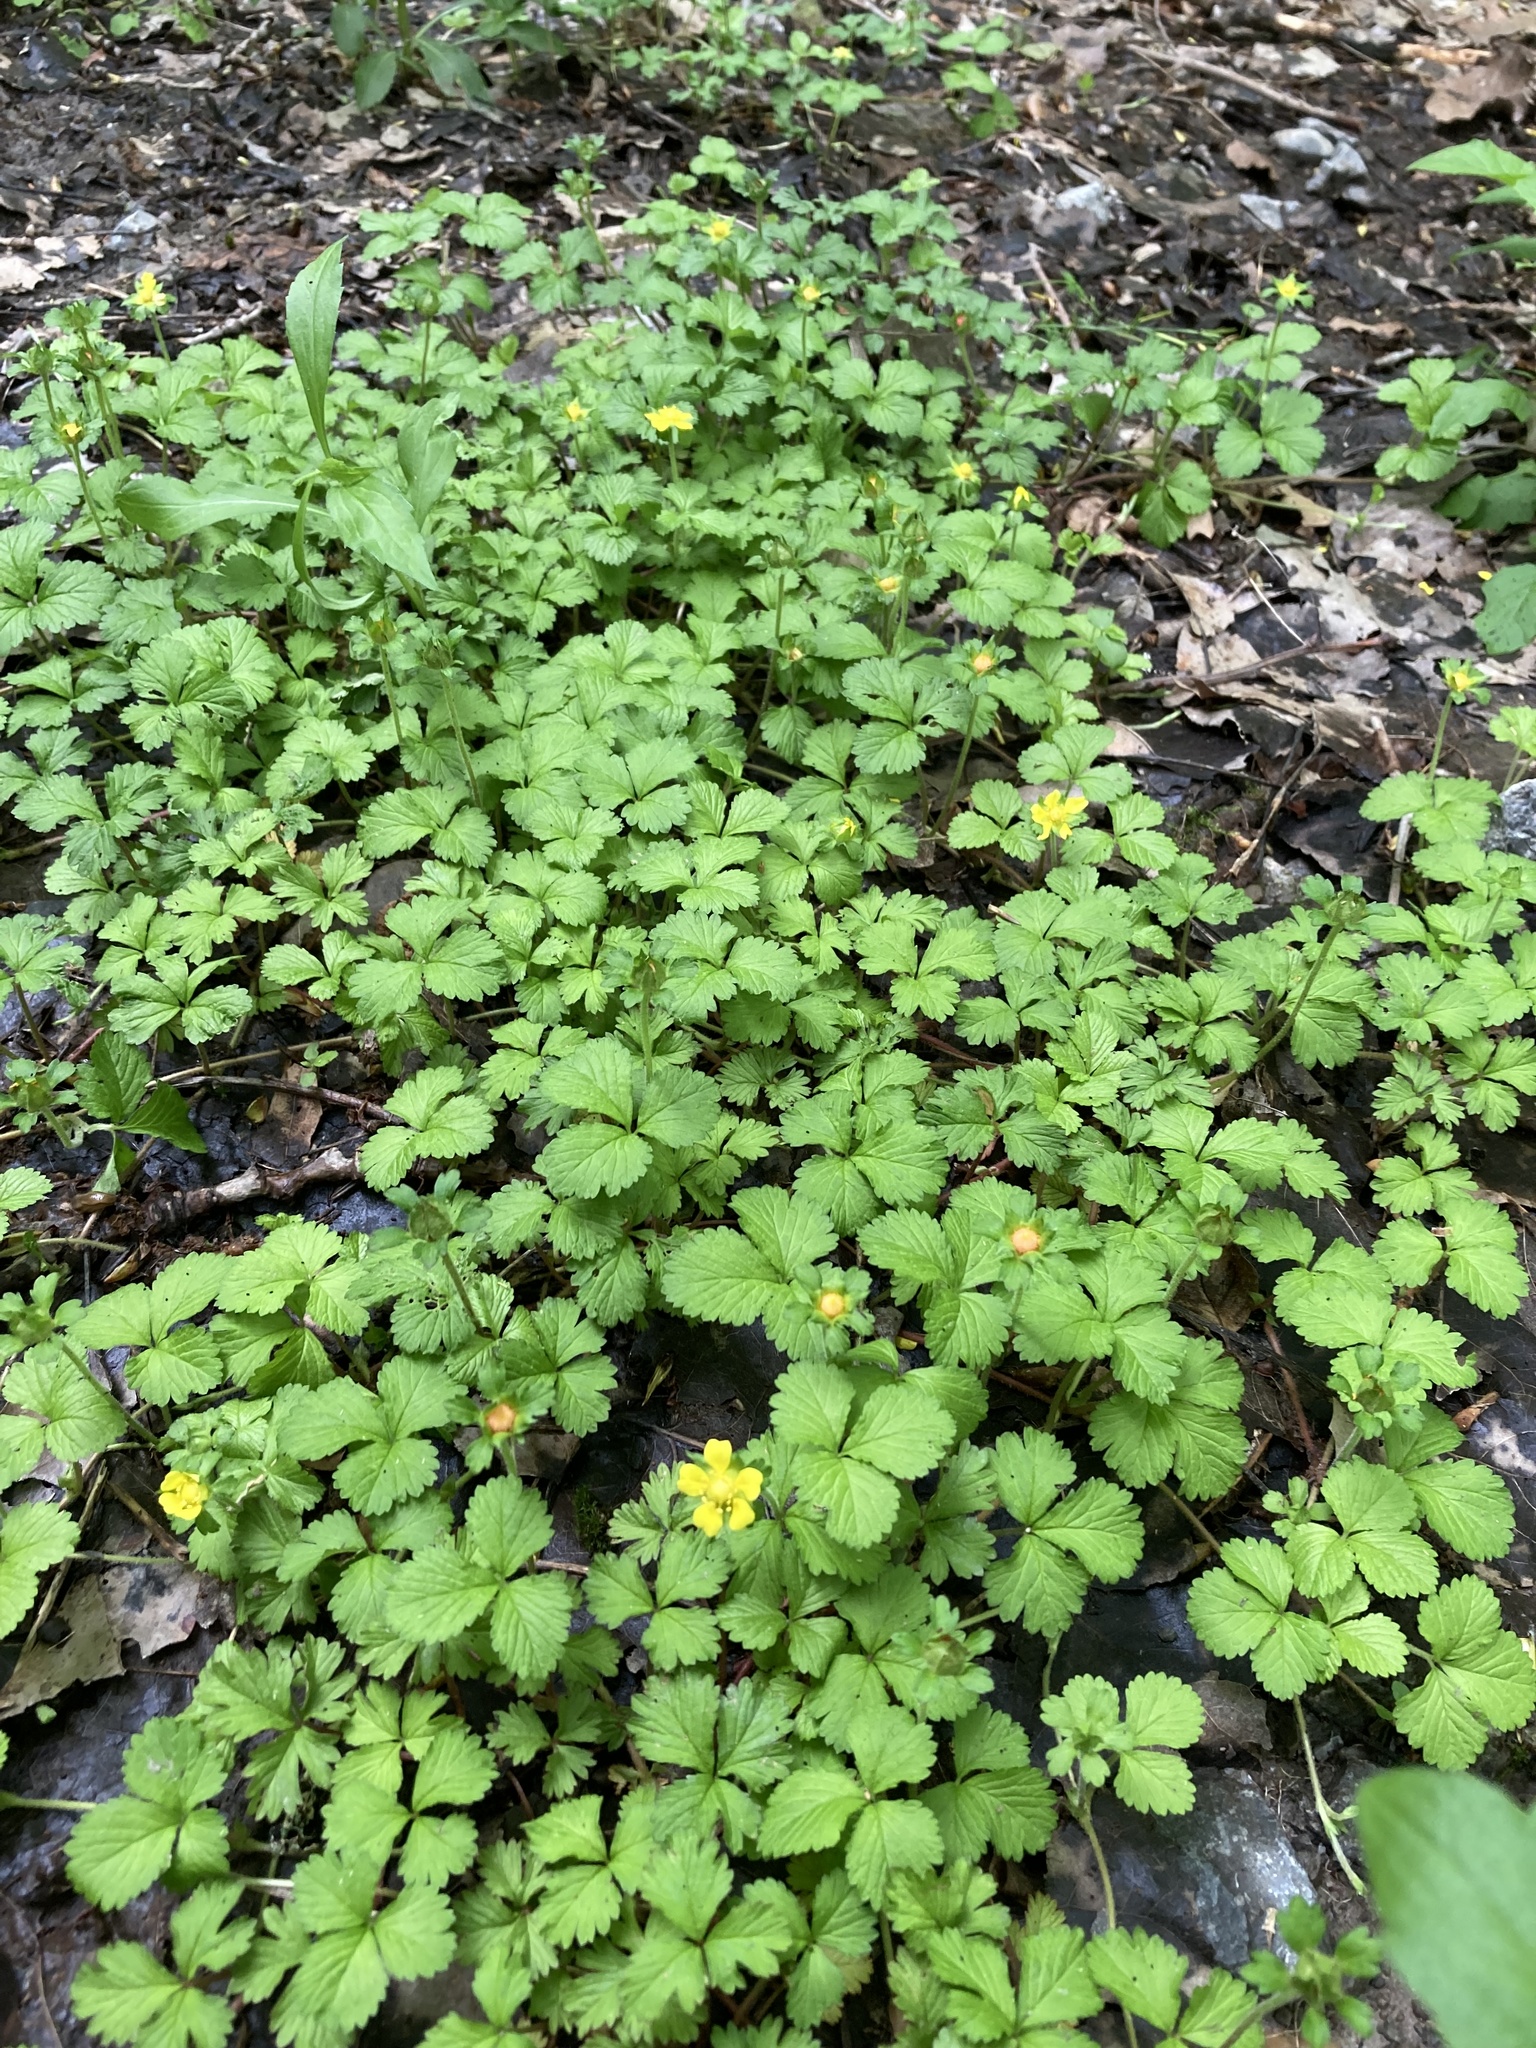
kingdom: Plantae
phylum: Tracheophyta
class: Magnoliopsida
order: Rosales
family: Rosaceae
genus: Potentilla
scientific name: Potentilla indica
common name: Yellow-flowered strawberry
